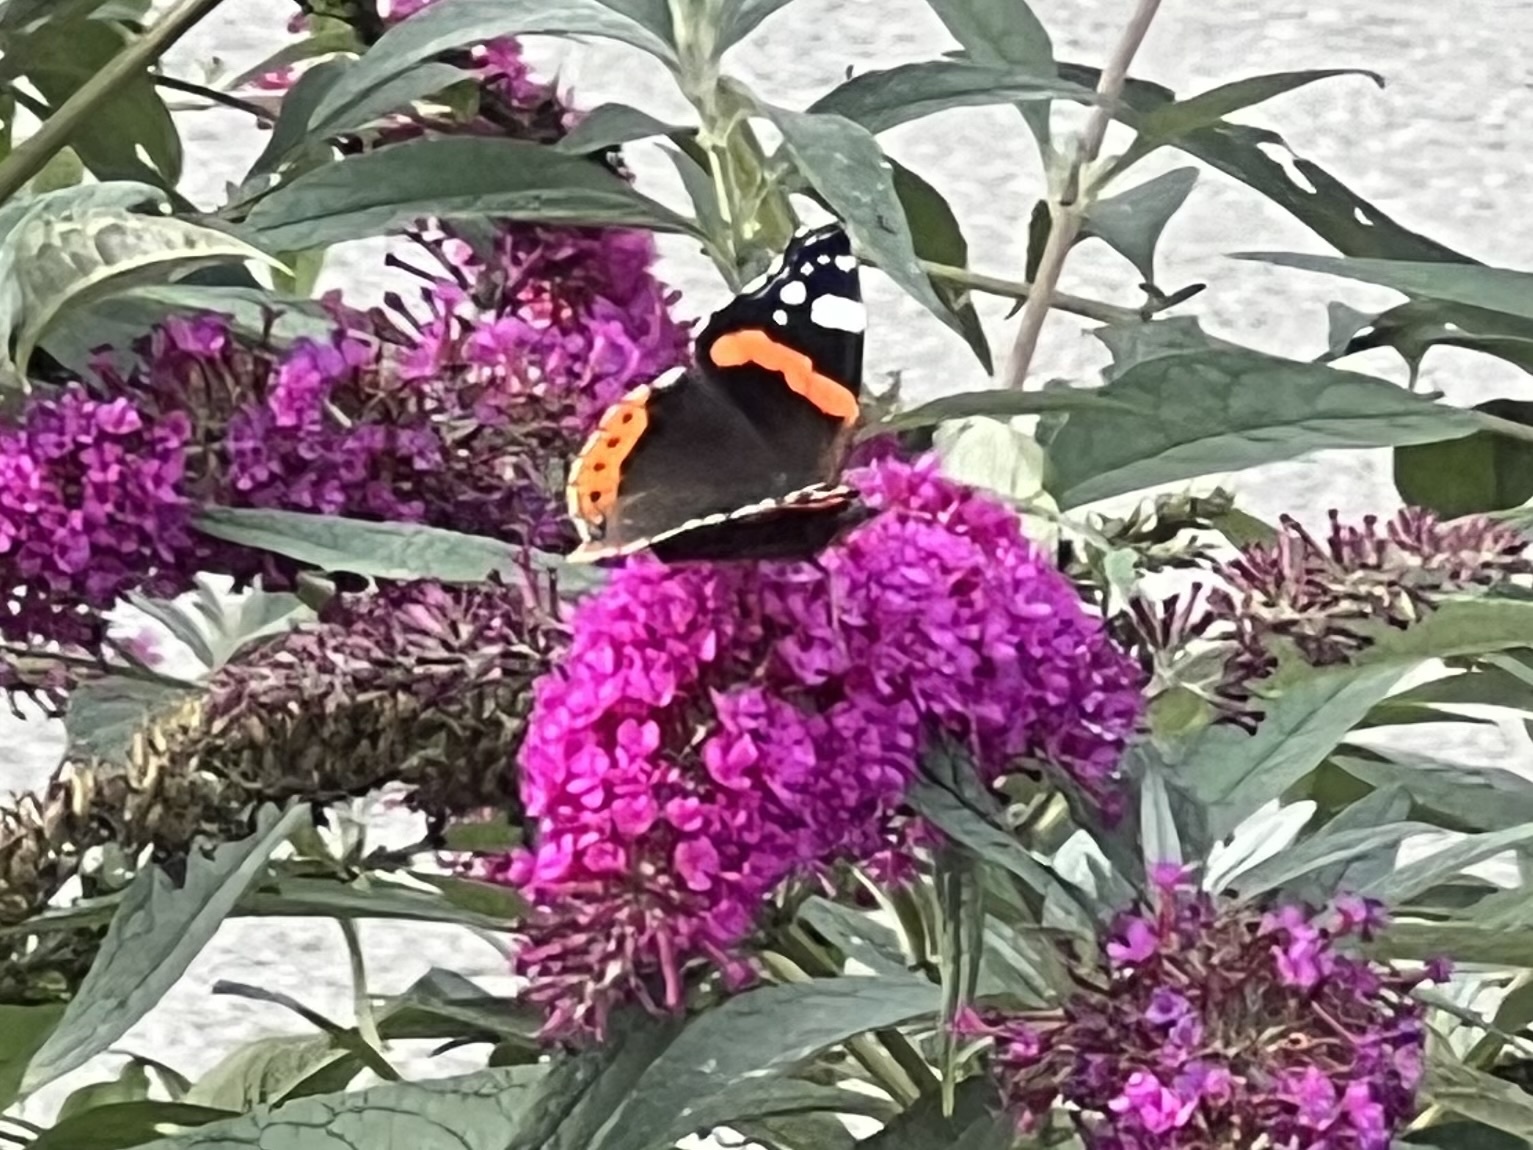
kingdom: Animalia
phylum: Arthropoda
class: Insecta
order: Lepidoptera
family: Nymphalidae
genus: Vanessa
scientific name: Vanessa atalanta
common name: Red admiral
